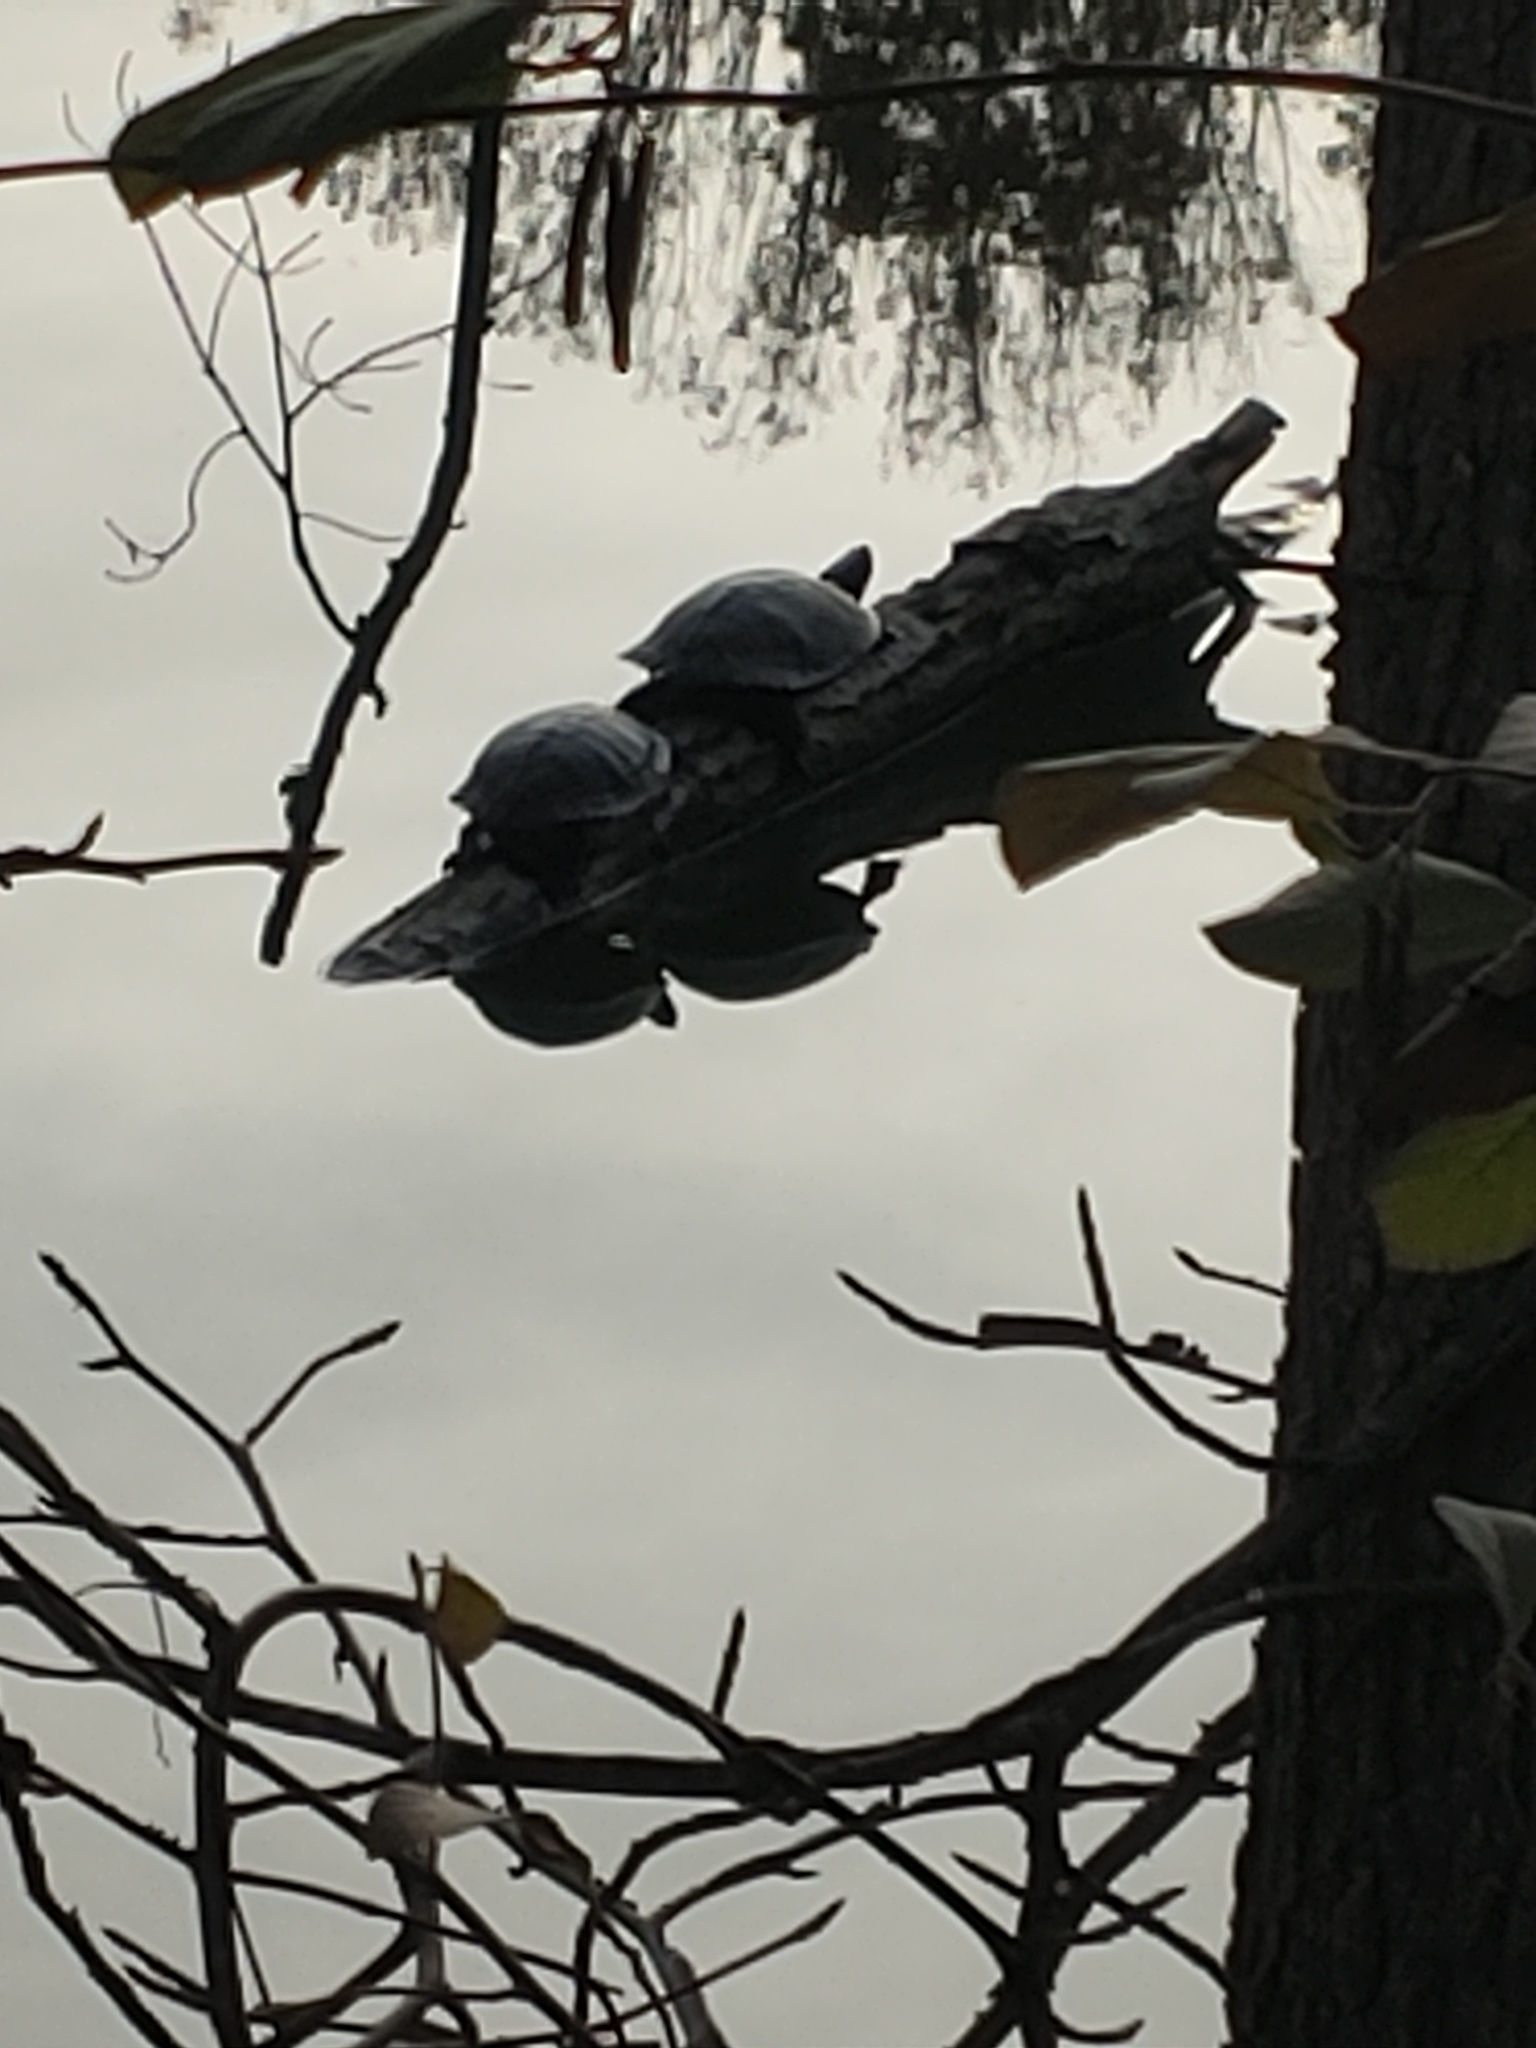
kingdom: Animalia
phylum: Chordata
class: Testudines
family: Emydidae
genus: Trachemys
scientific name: Trachemys scripta
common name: Slider
